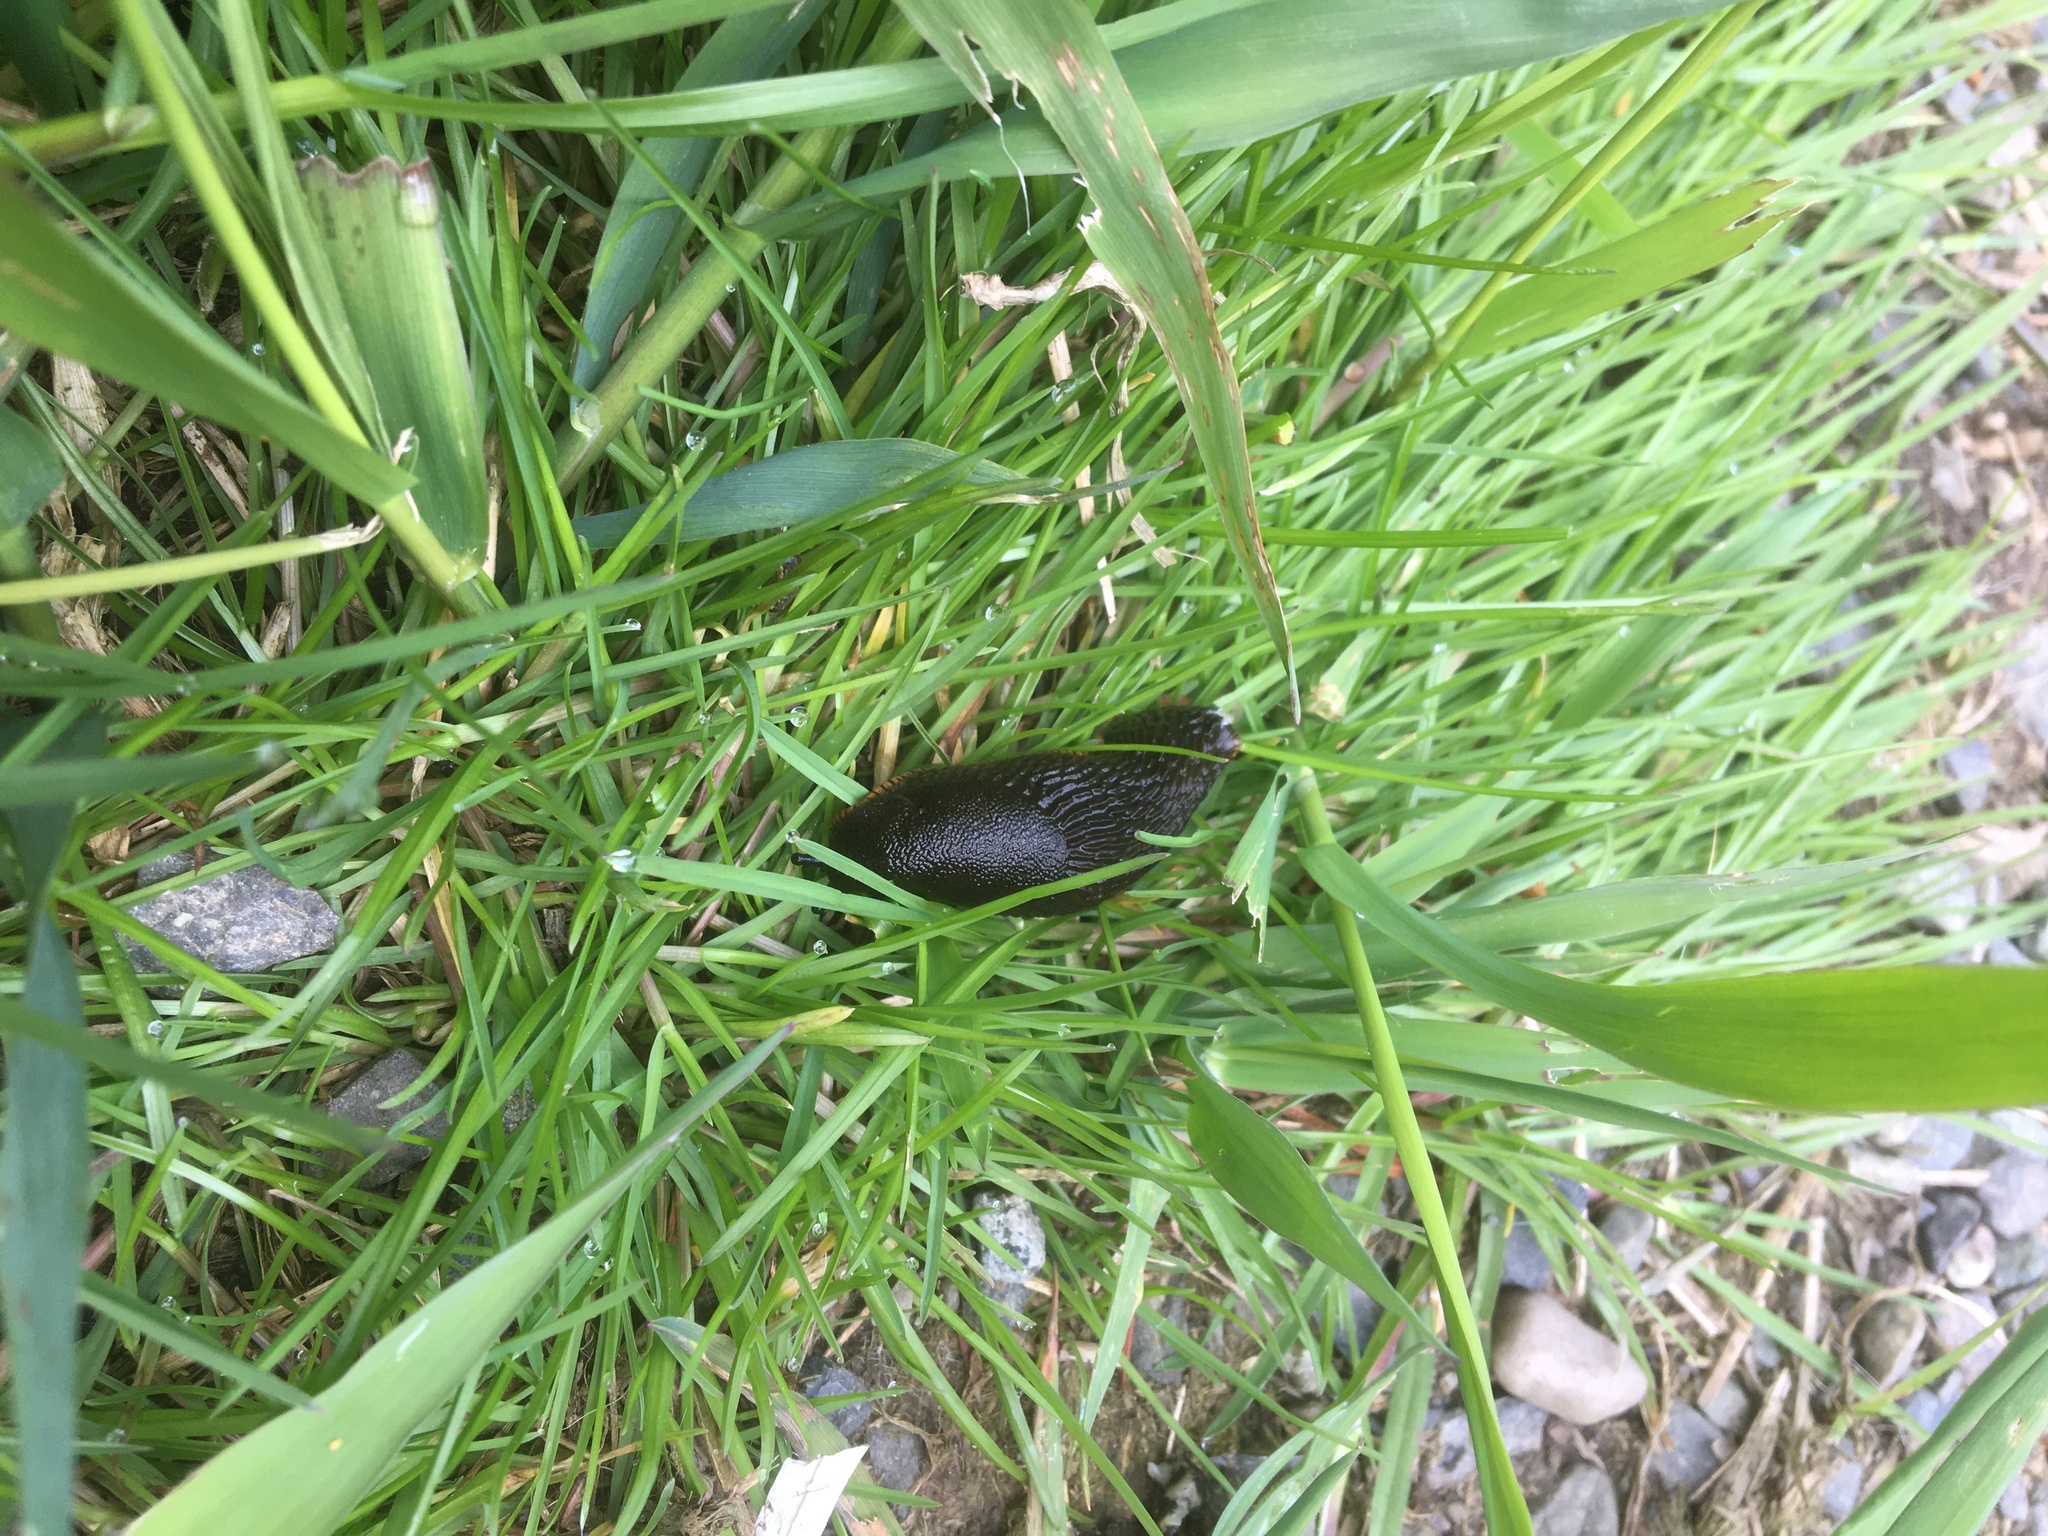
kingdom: Animalia
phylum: Mollusca
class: Gastropoda
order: Stylommatophora
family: Arionidae
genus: Arion
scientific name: Arion
